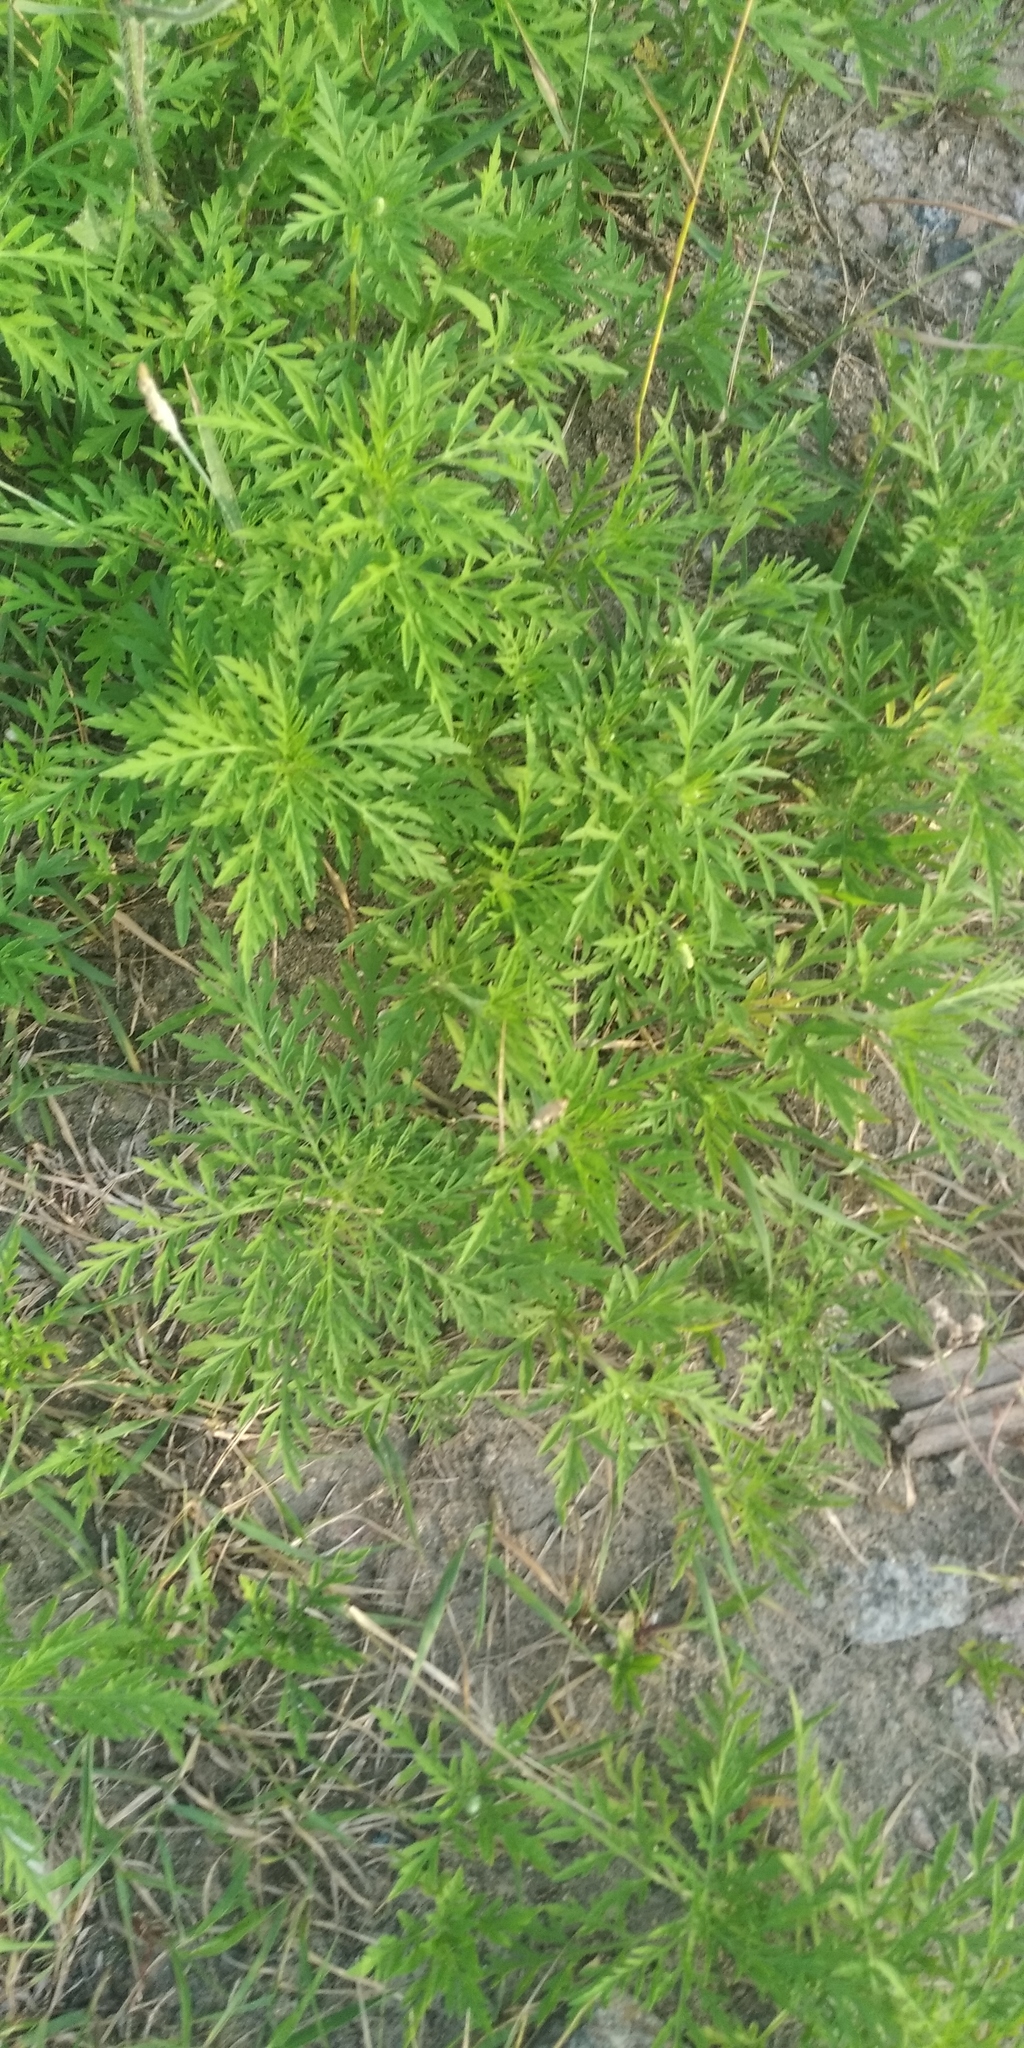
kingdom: Plantae
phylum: Tracheophyta
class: Magnoliopsida
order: Asterales
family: Asteraceae
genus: Ambrosia
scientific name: Ambrosia artemisiifolia
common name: Annual ragweed
